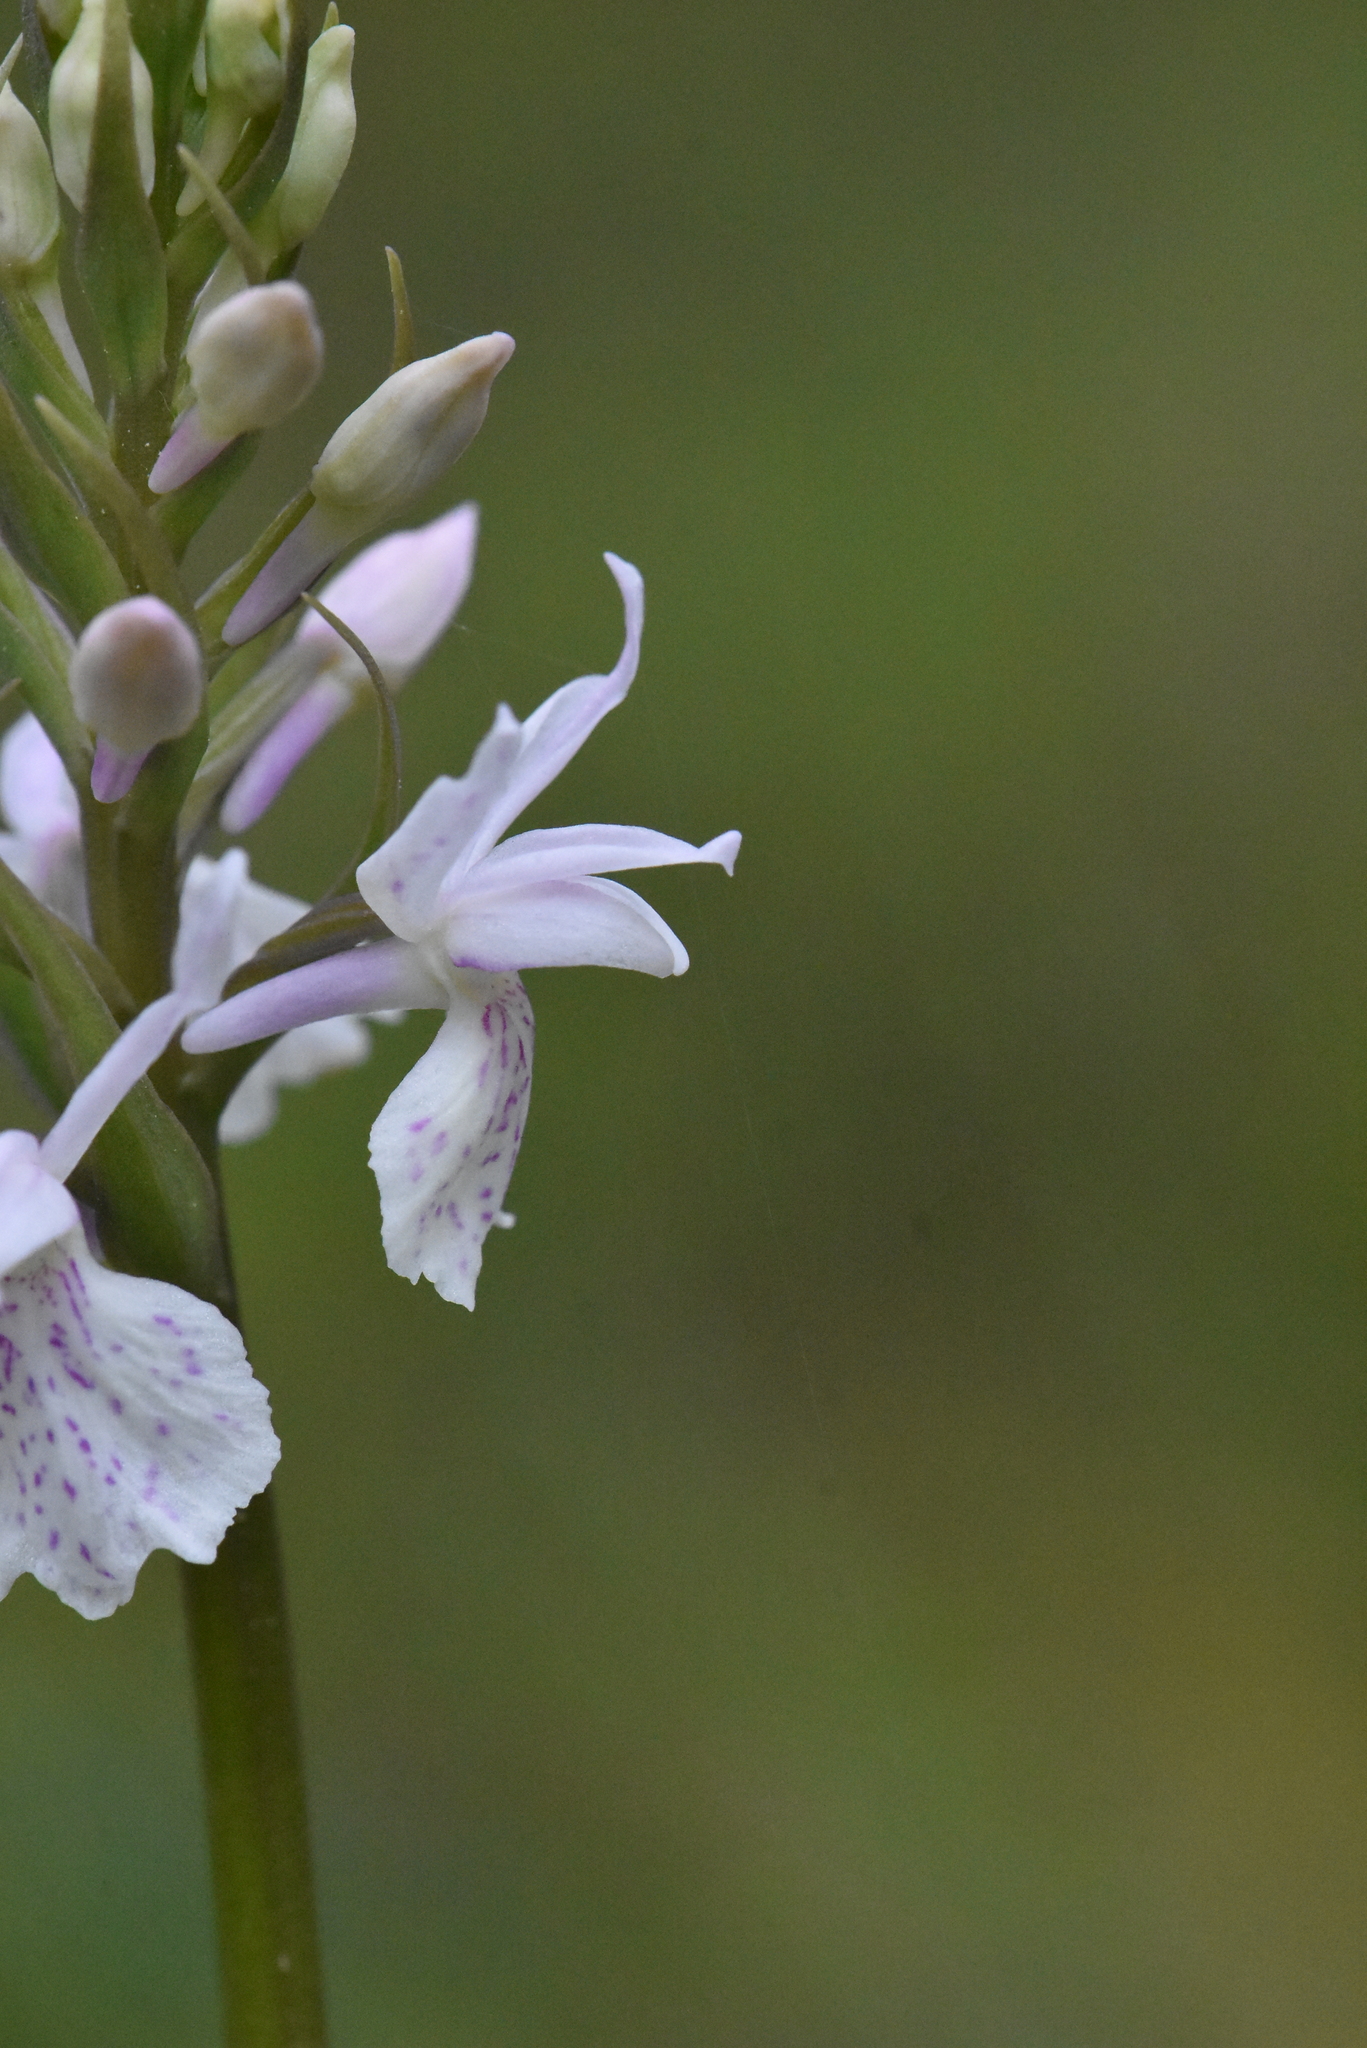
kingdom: Plantae
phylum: Tracheophyta
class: Liliopsida
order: Asparagales
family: Orchidaceae
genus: Dactylorhiza
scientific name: Dactylorhiza maculata
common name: Heath spotted-orchid
